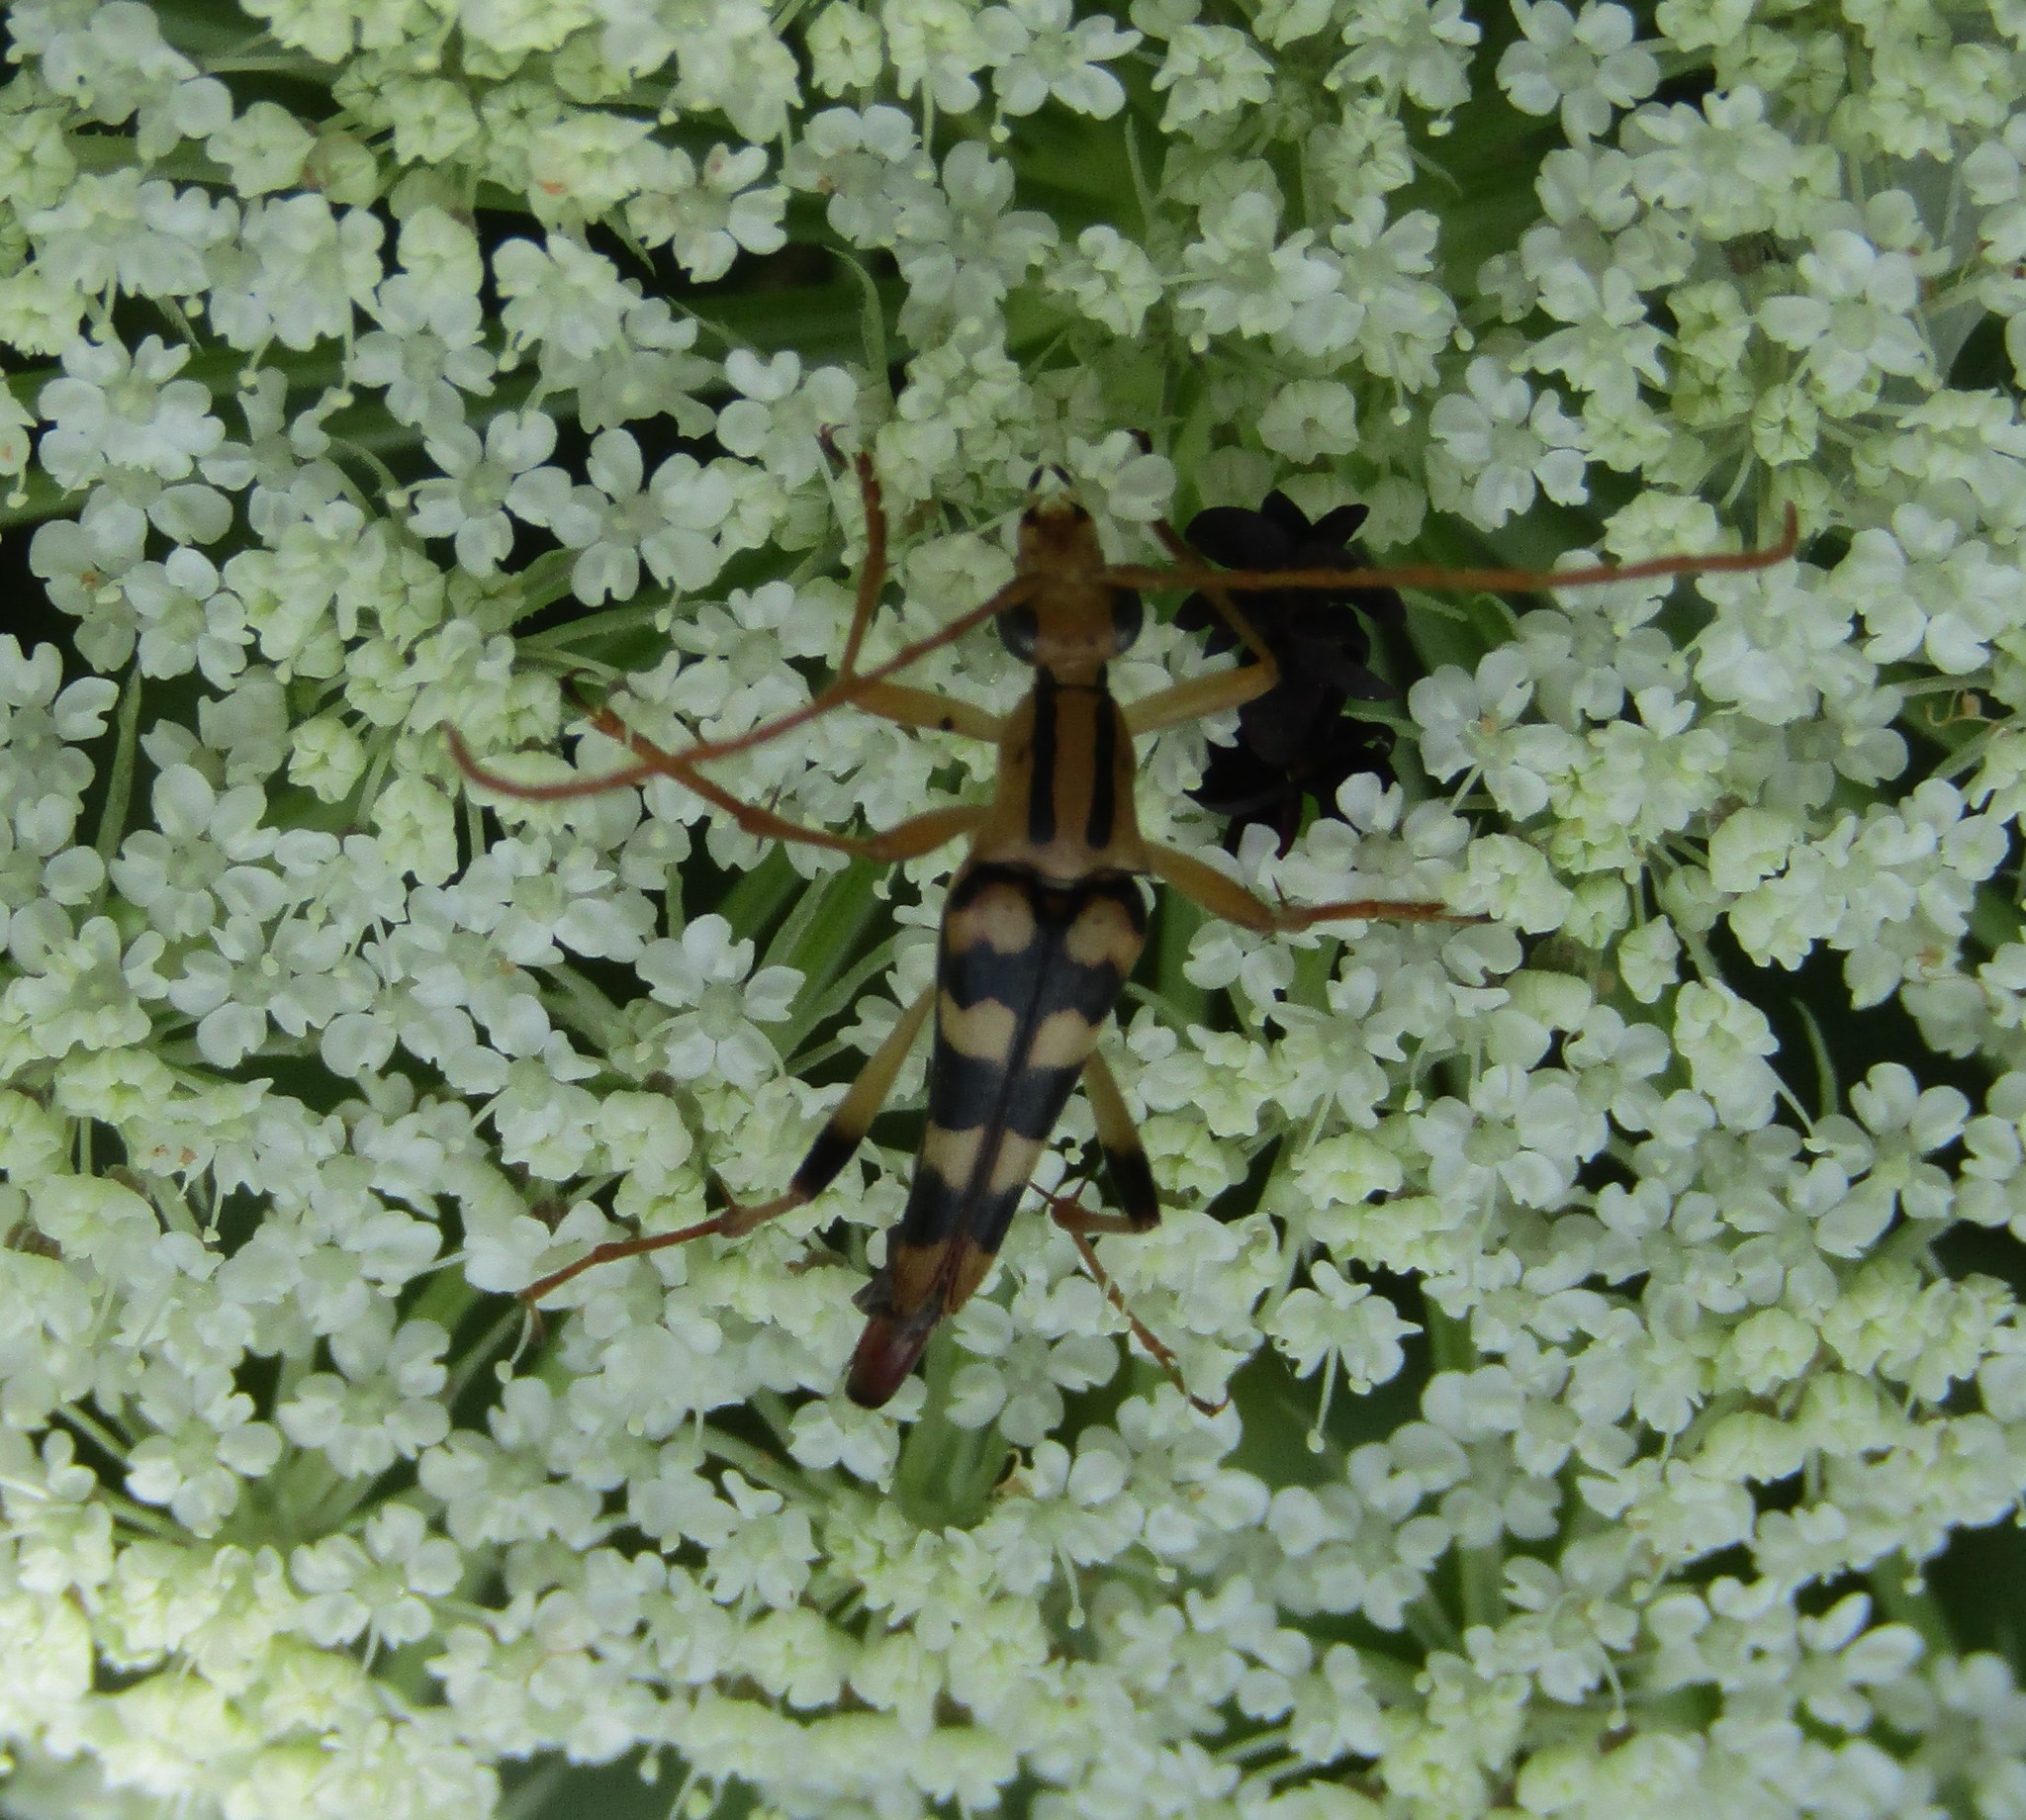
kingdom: Animalia
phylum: Arthropoda
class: Insecta
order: Coleoptera
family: Cerambycidae
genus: Strangalia
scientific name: Strangalia luteicornis
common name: Yellow-horned flower longhorn beetle
